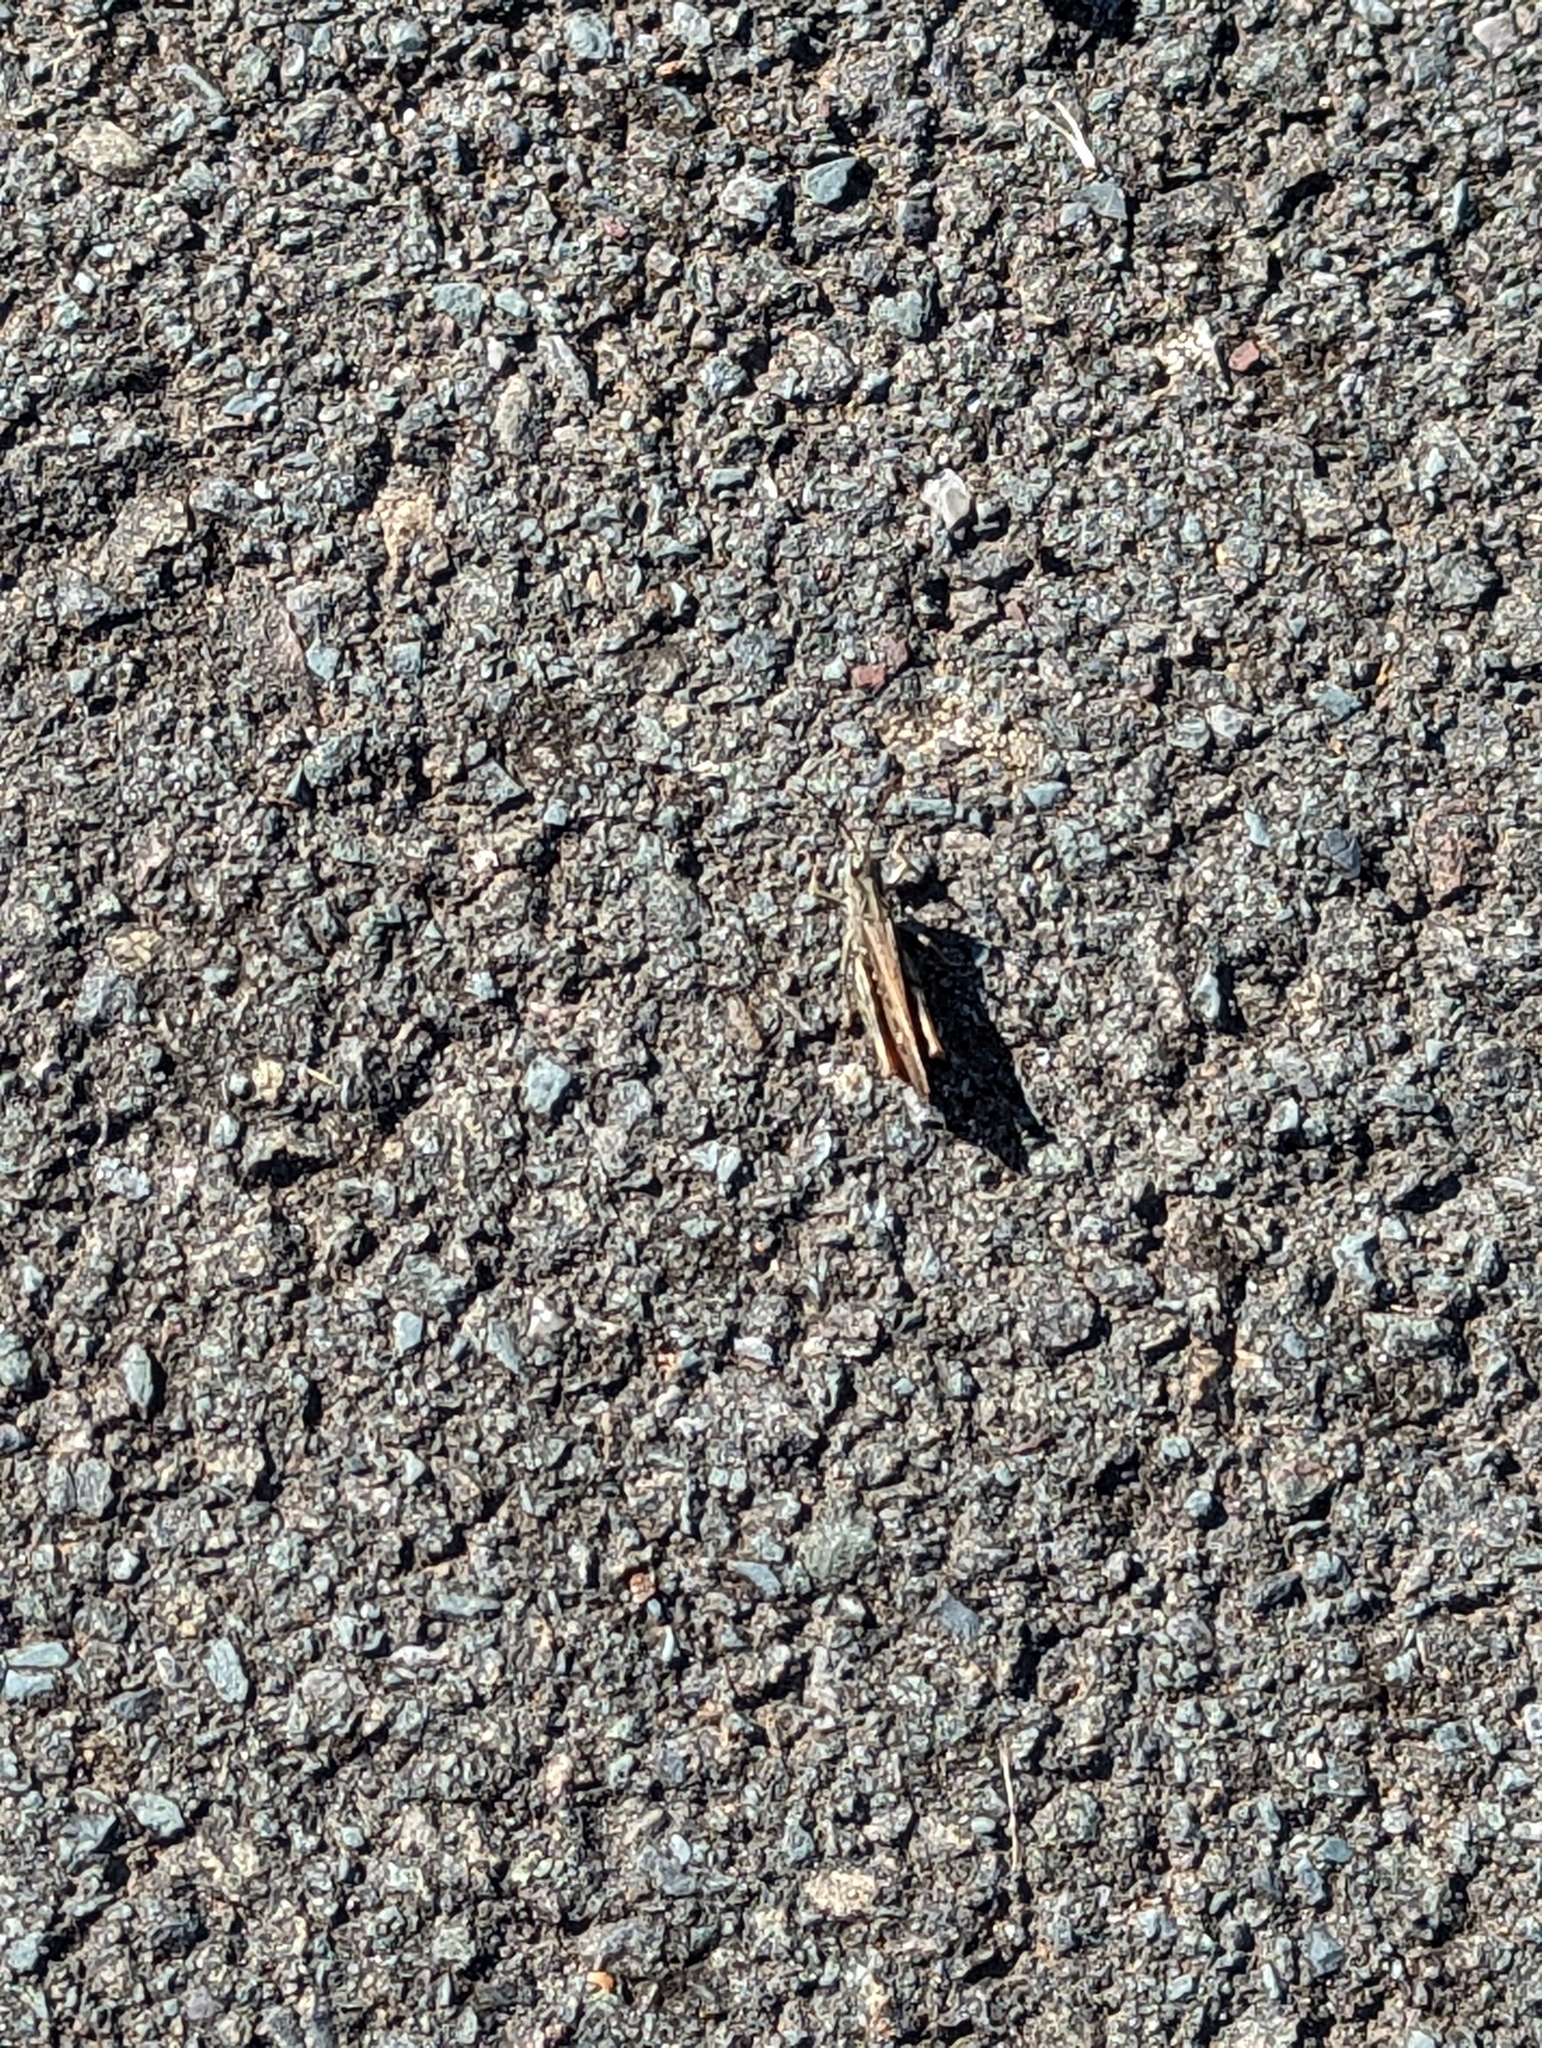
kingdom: Animalia
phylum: Arthropoda
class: Insecta
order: Orthoptera
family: Acrididae
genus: Chorthippus
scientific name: Chorthippus brunneus
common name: Field grasshopper
